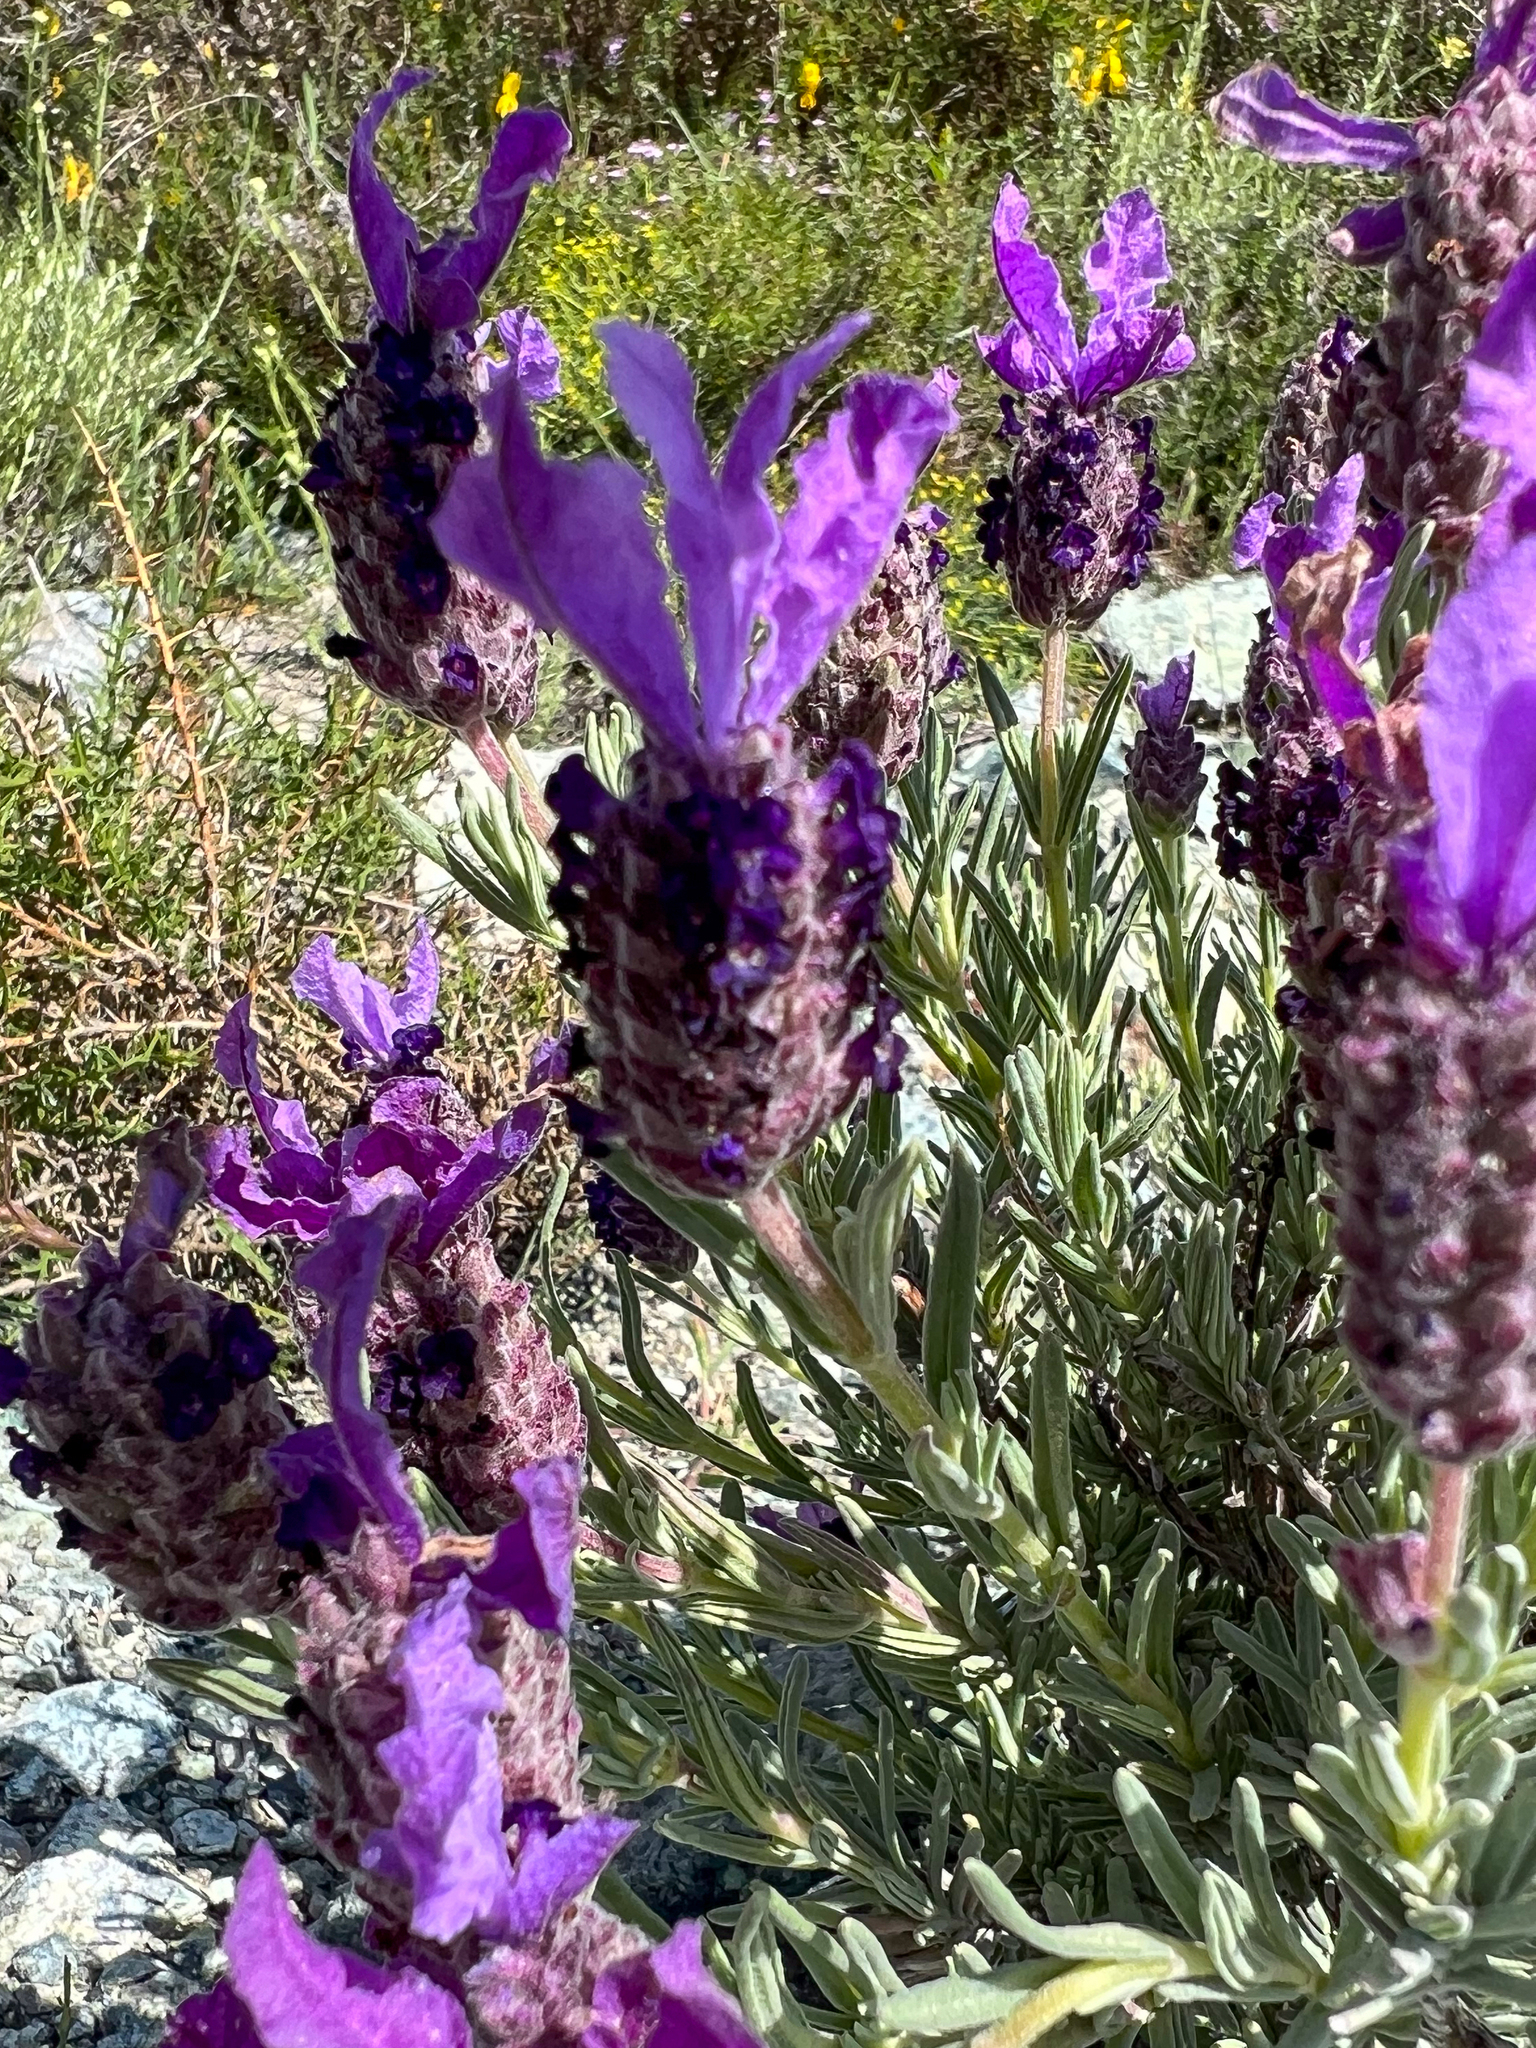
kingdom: Plantae
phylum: Tracheophyta
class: Magnoliopsida
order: Lamiales
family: Lamiaceae
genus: Lavandula
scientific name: Lavandula stoechas
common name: French lavender
